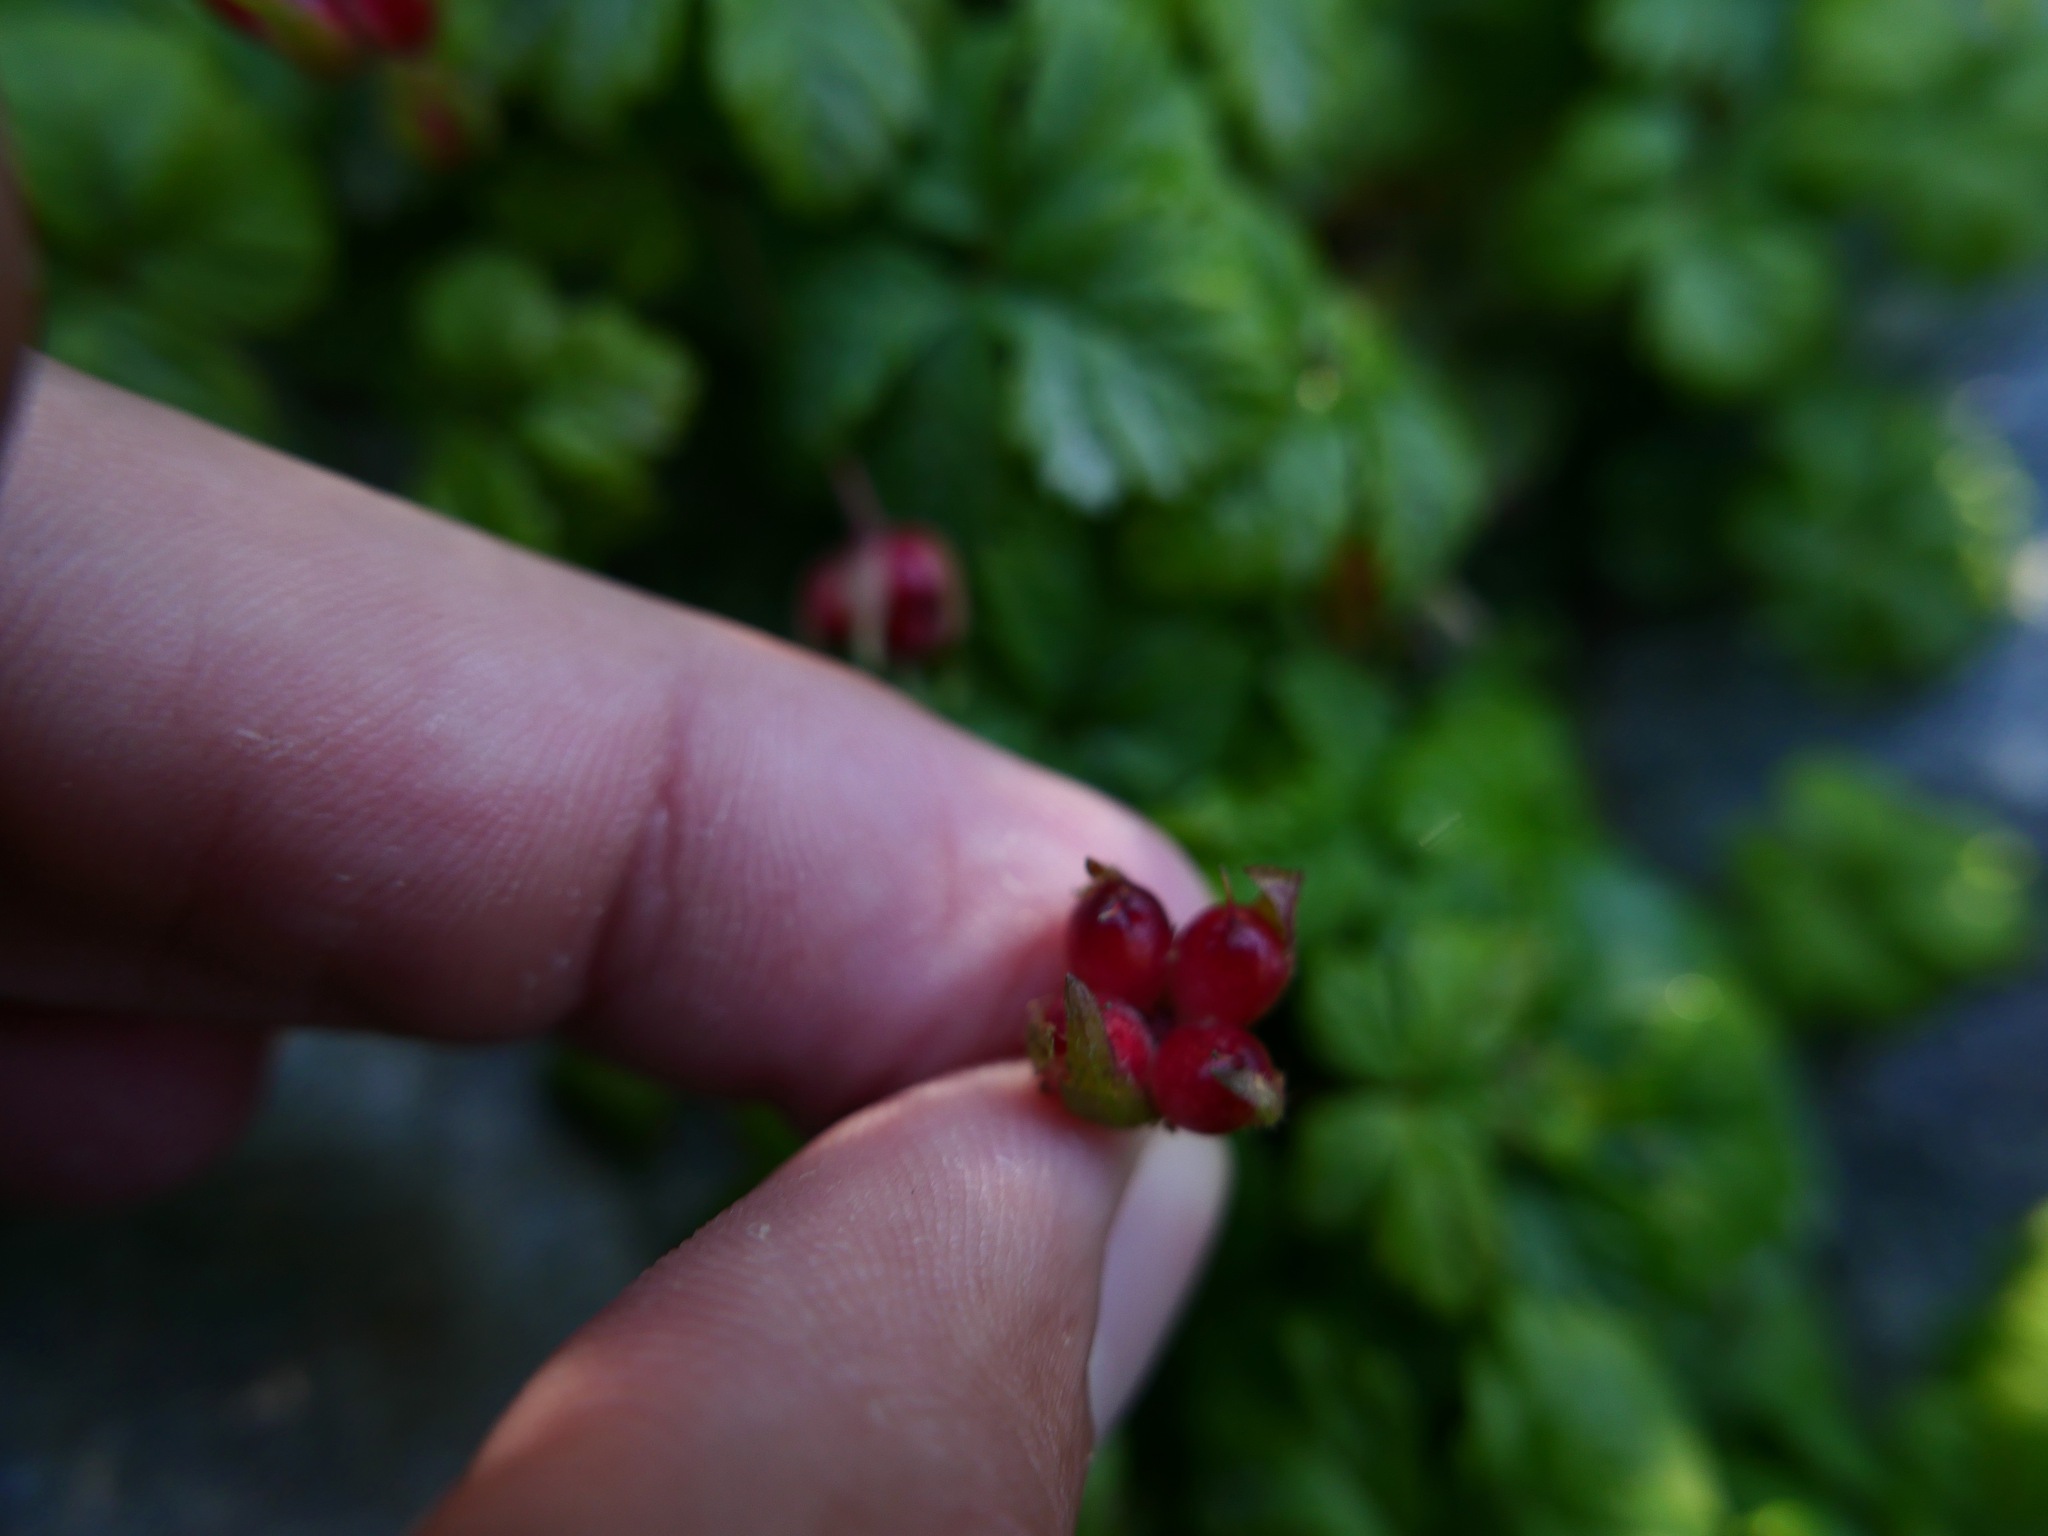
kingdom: Plantae
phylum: Tracheophyta
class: Magnoliopsida
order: Rosales
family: Rosaceae
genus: Rubus
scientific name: Rubus pedatus
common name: Creeping raspberry
